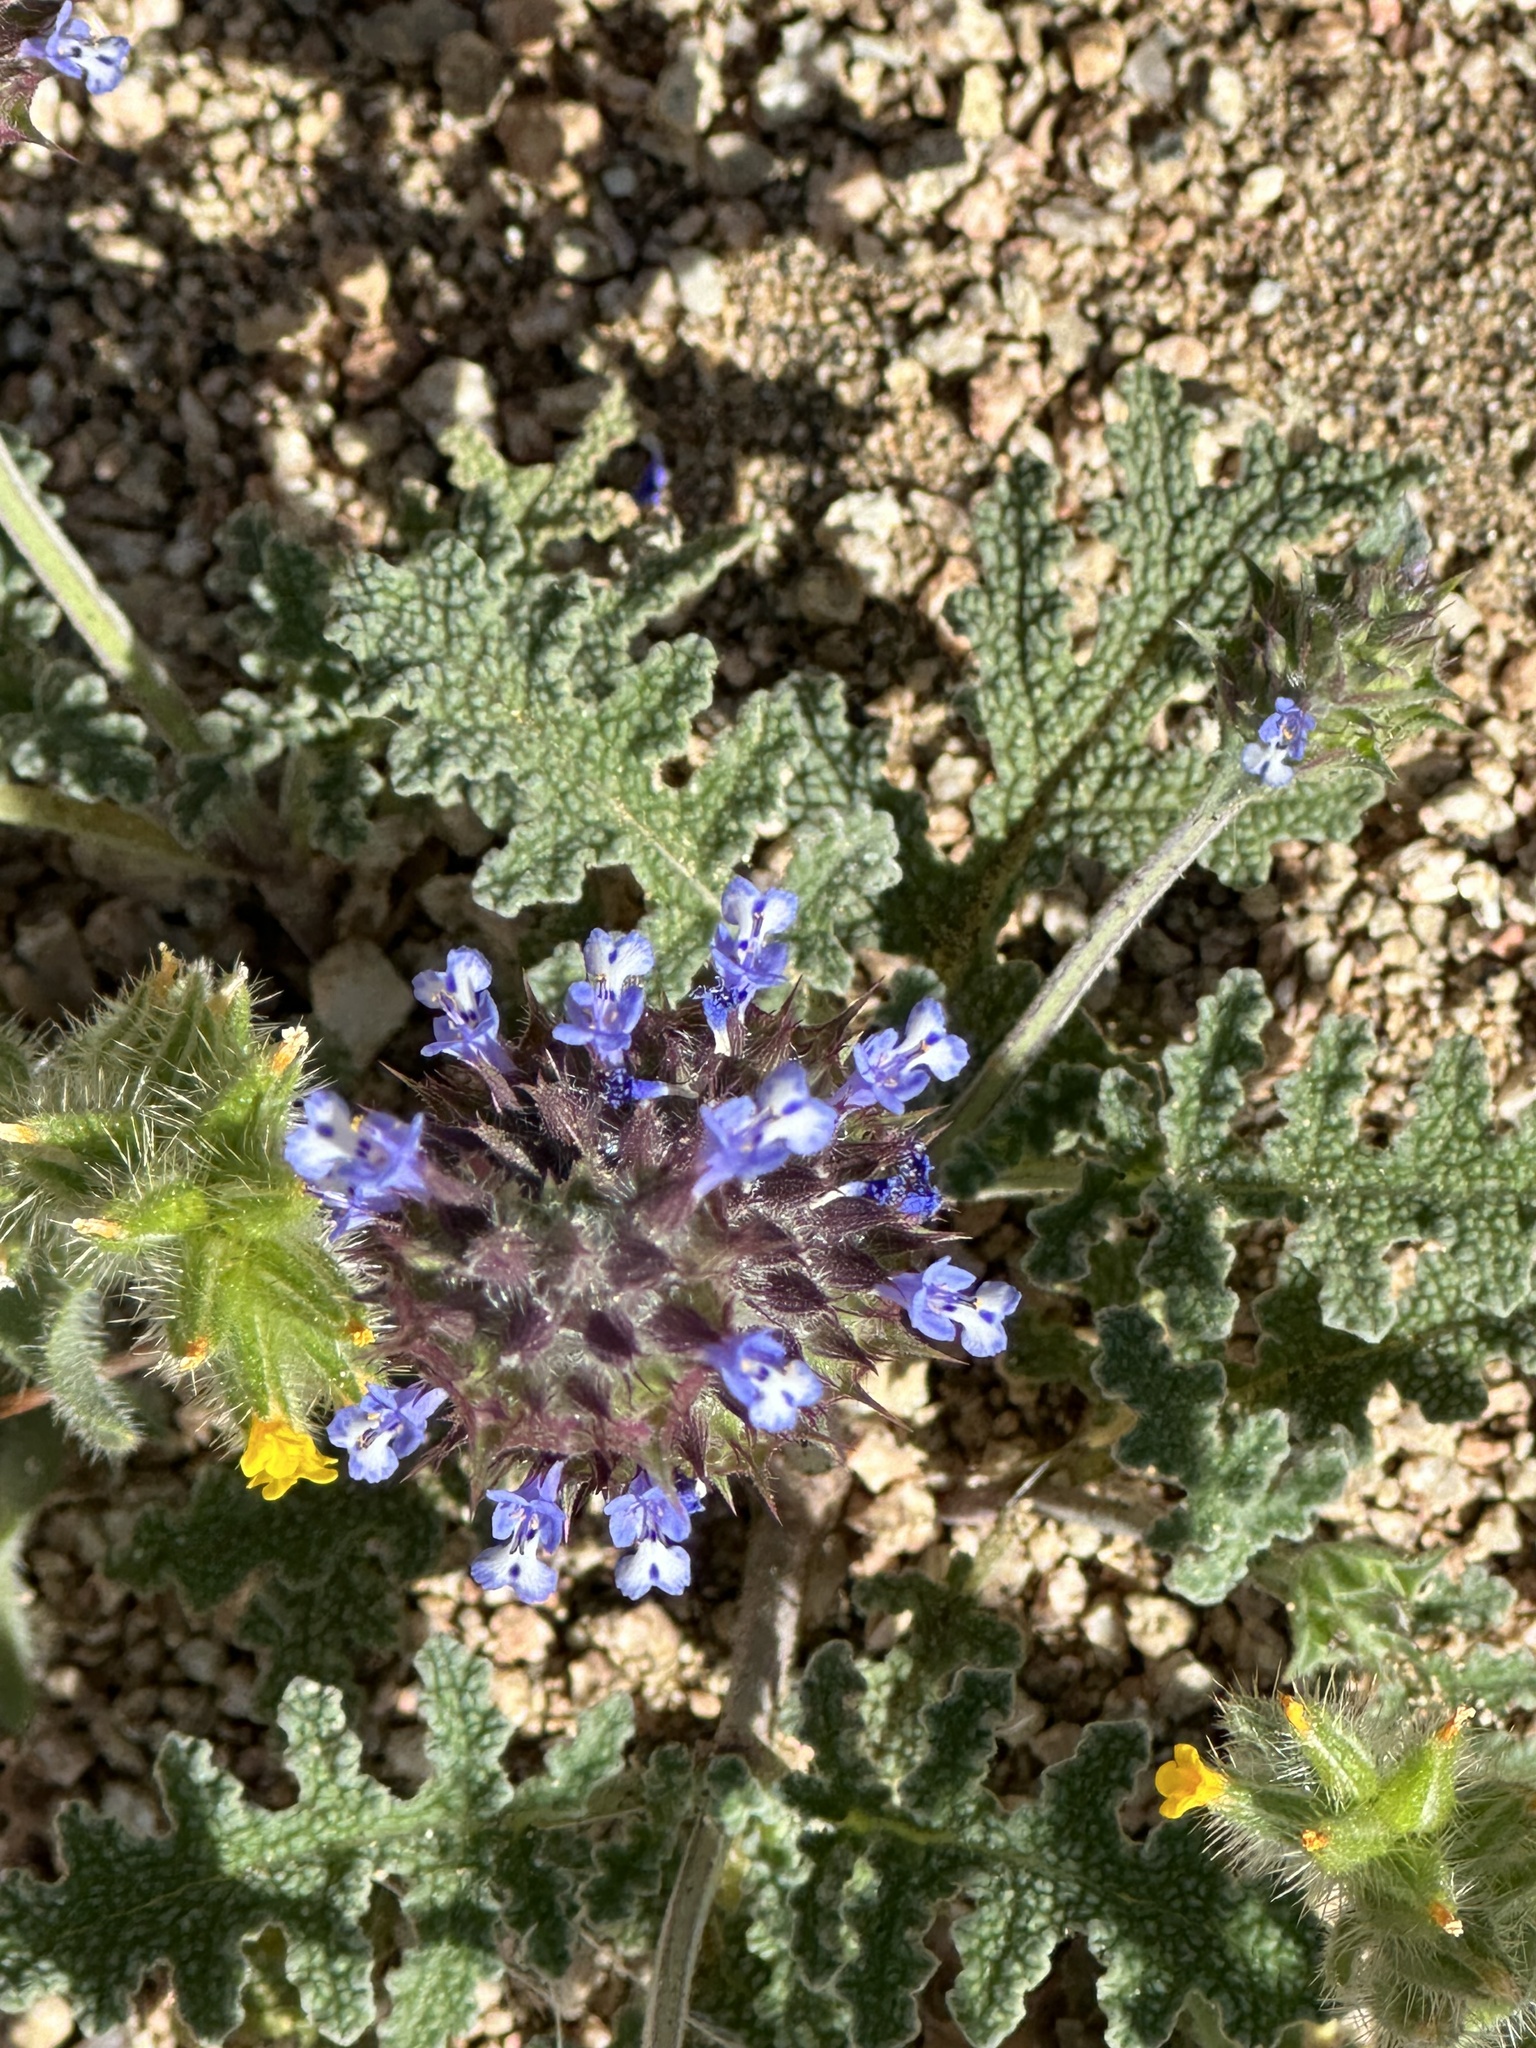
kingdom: Plantae
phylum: Tracheophyta
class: Magnoliopsida
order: Lamiales
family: Lamiaceae
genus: Salvia
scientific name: Salvia columbariae
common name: Chia
